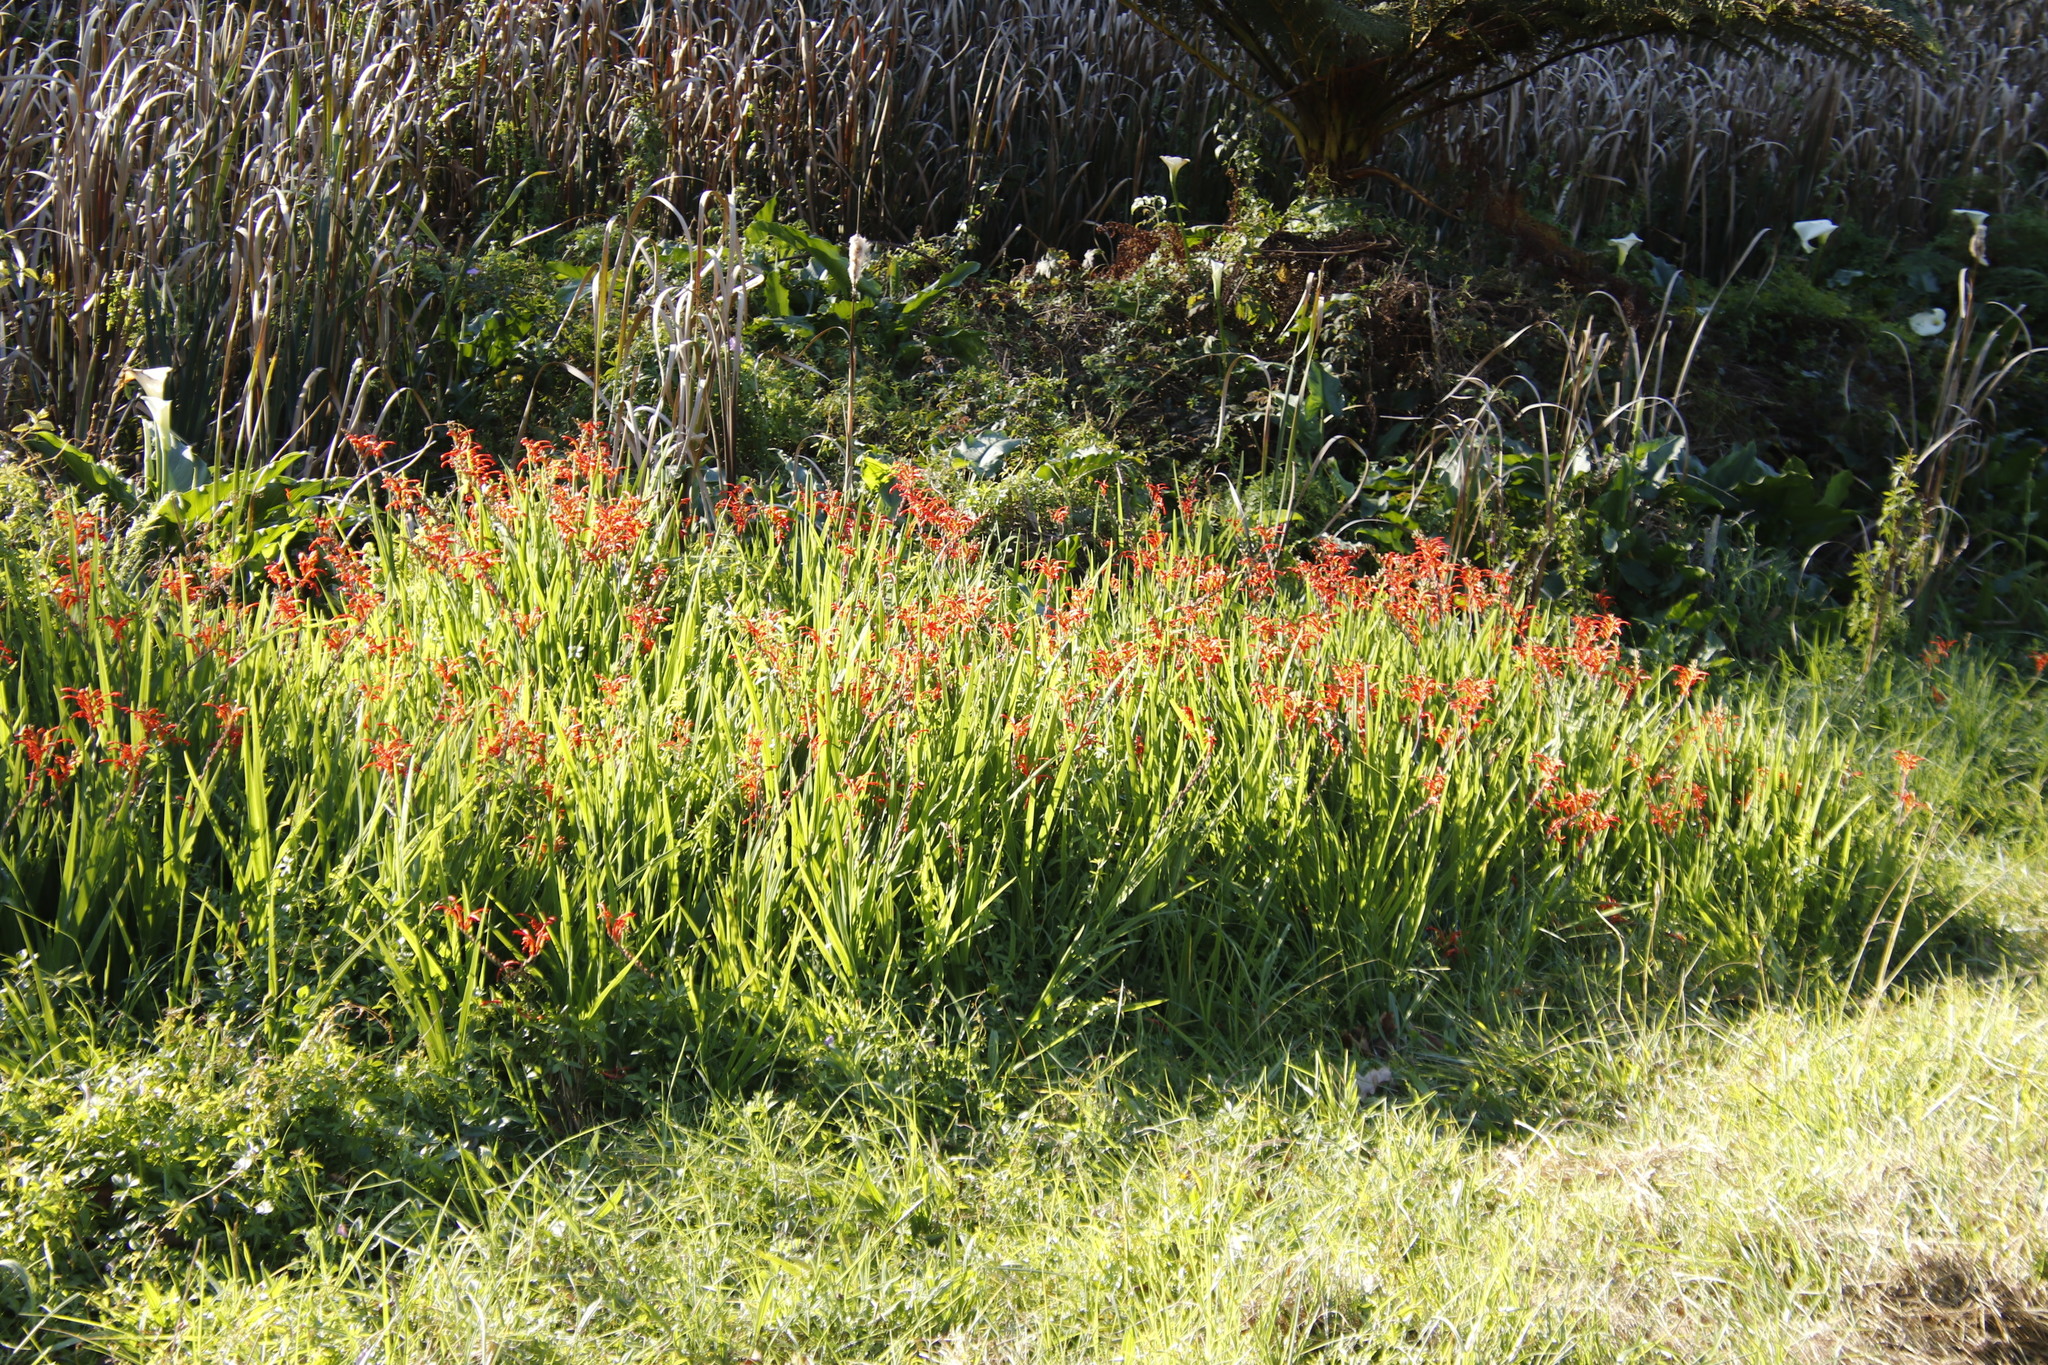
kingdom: Plantae
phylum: Tracheophyta
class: Liliopsida
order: Asparagales
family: Iridaceae
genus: Chasmanthe
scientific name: Chasmanthe aethiopica
